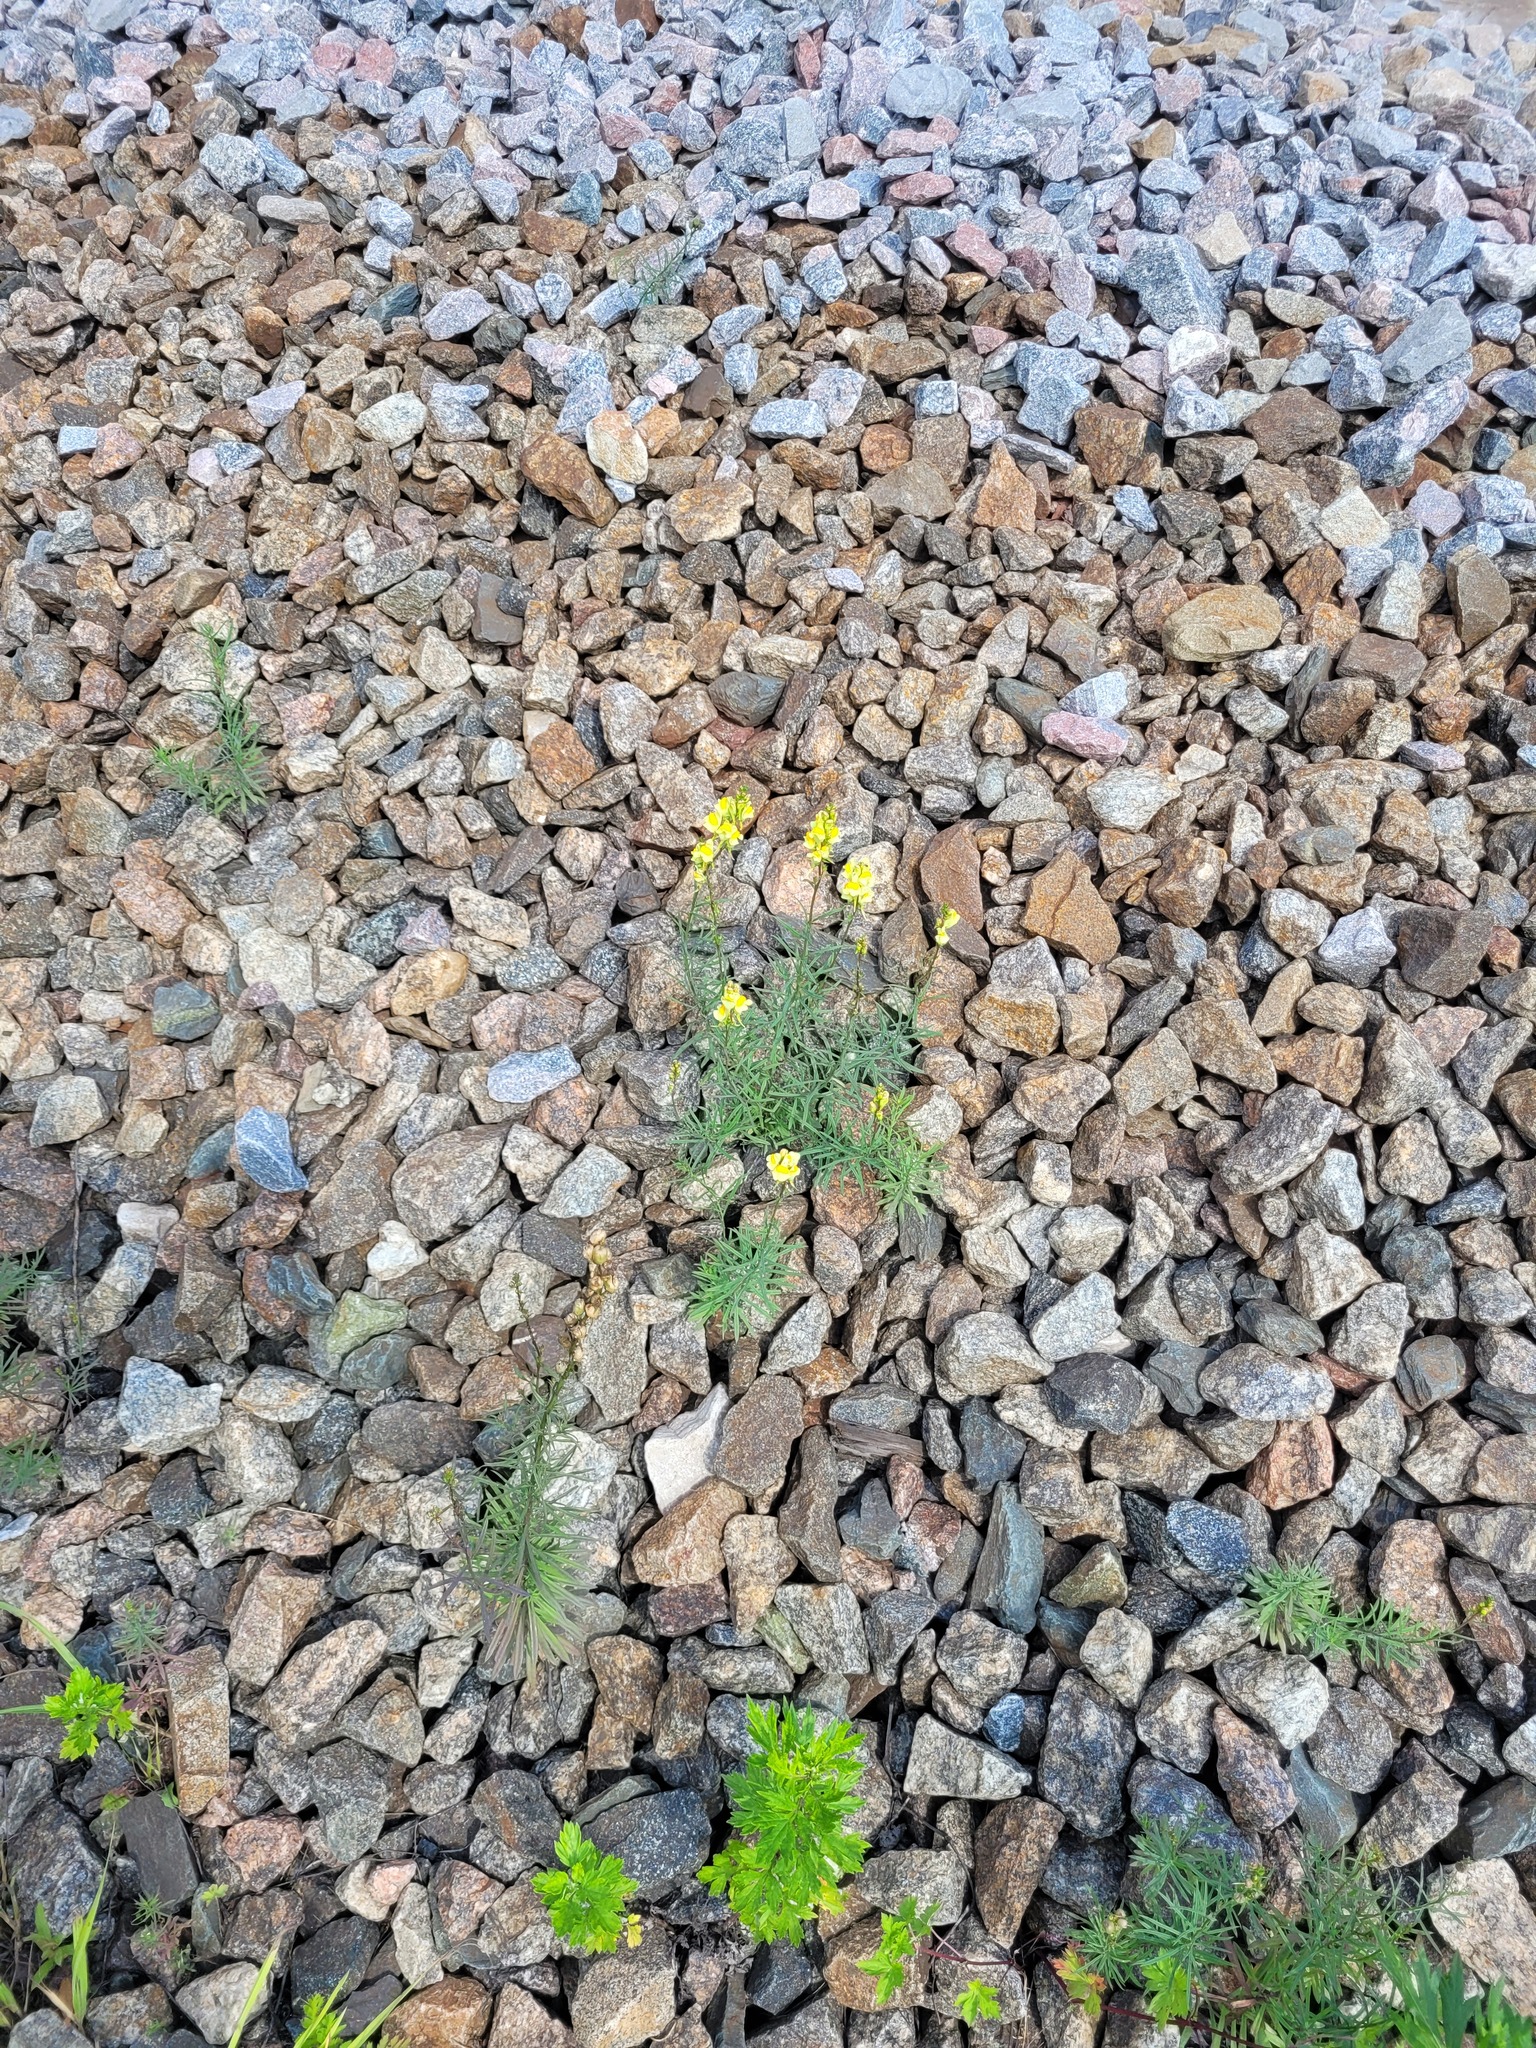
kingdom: Plantae
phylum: Tracheophyta
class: Magnoliopsida
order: Lamiales
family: Plantaginaceae
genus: Linaria
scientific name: Linaria vulgaris
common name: Butter and eggs
